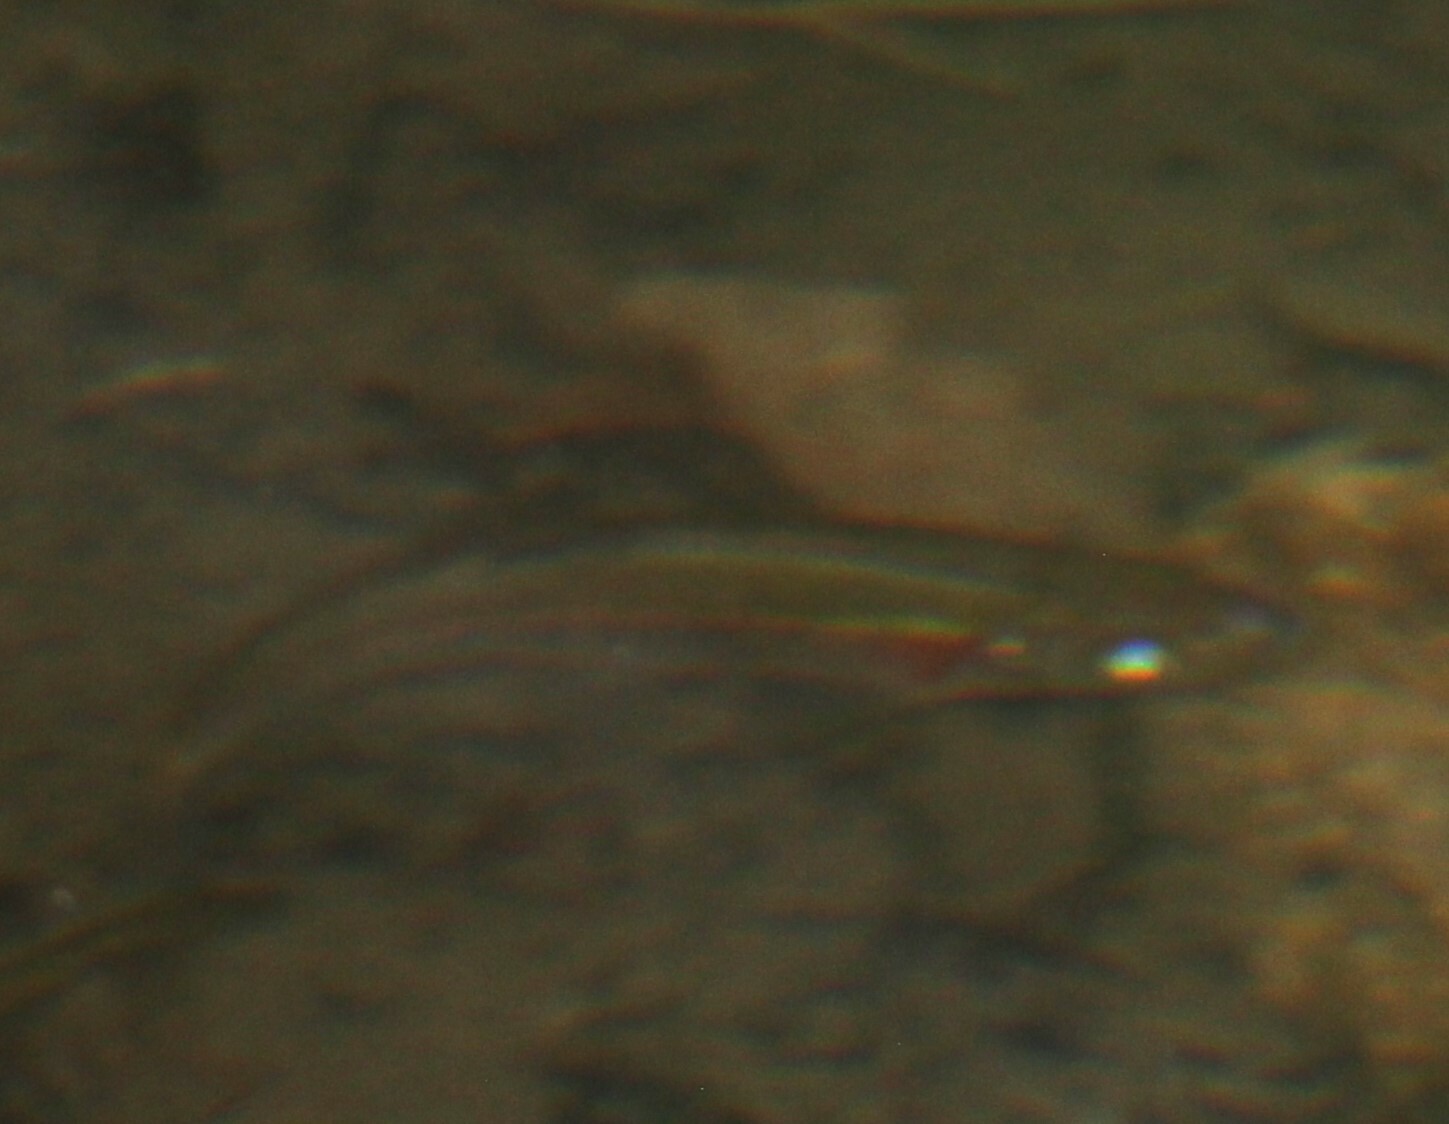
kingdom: Animalia
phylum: Chordata
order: Cypriniformes
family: Cyprinidae
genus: Clinostomus
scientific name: Clinostomus funduloides
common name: Rosyside dace
